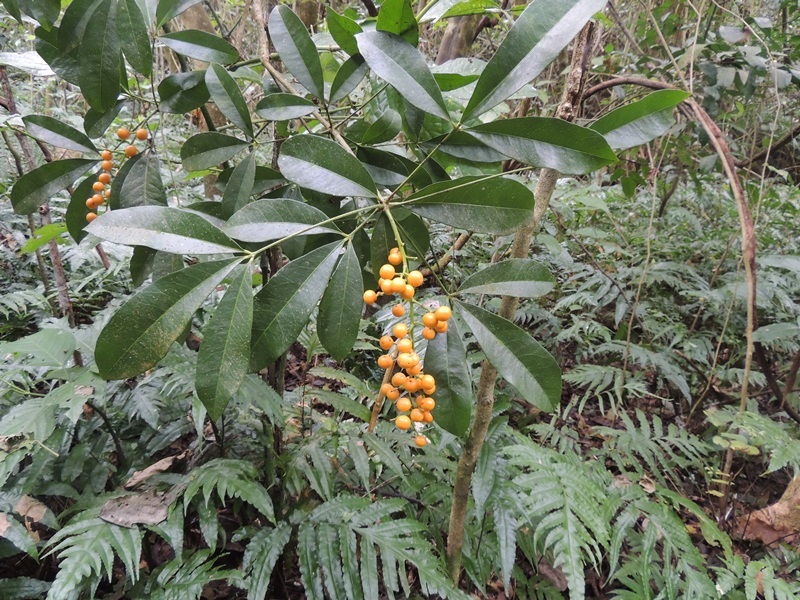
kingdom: Plantae
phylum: Tracheophyta
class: Magnoliopsida
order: Brassicales
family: Stixaceae
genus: Forchhammeria
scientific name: Forchhammeria trifoliata
